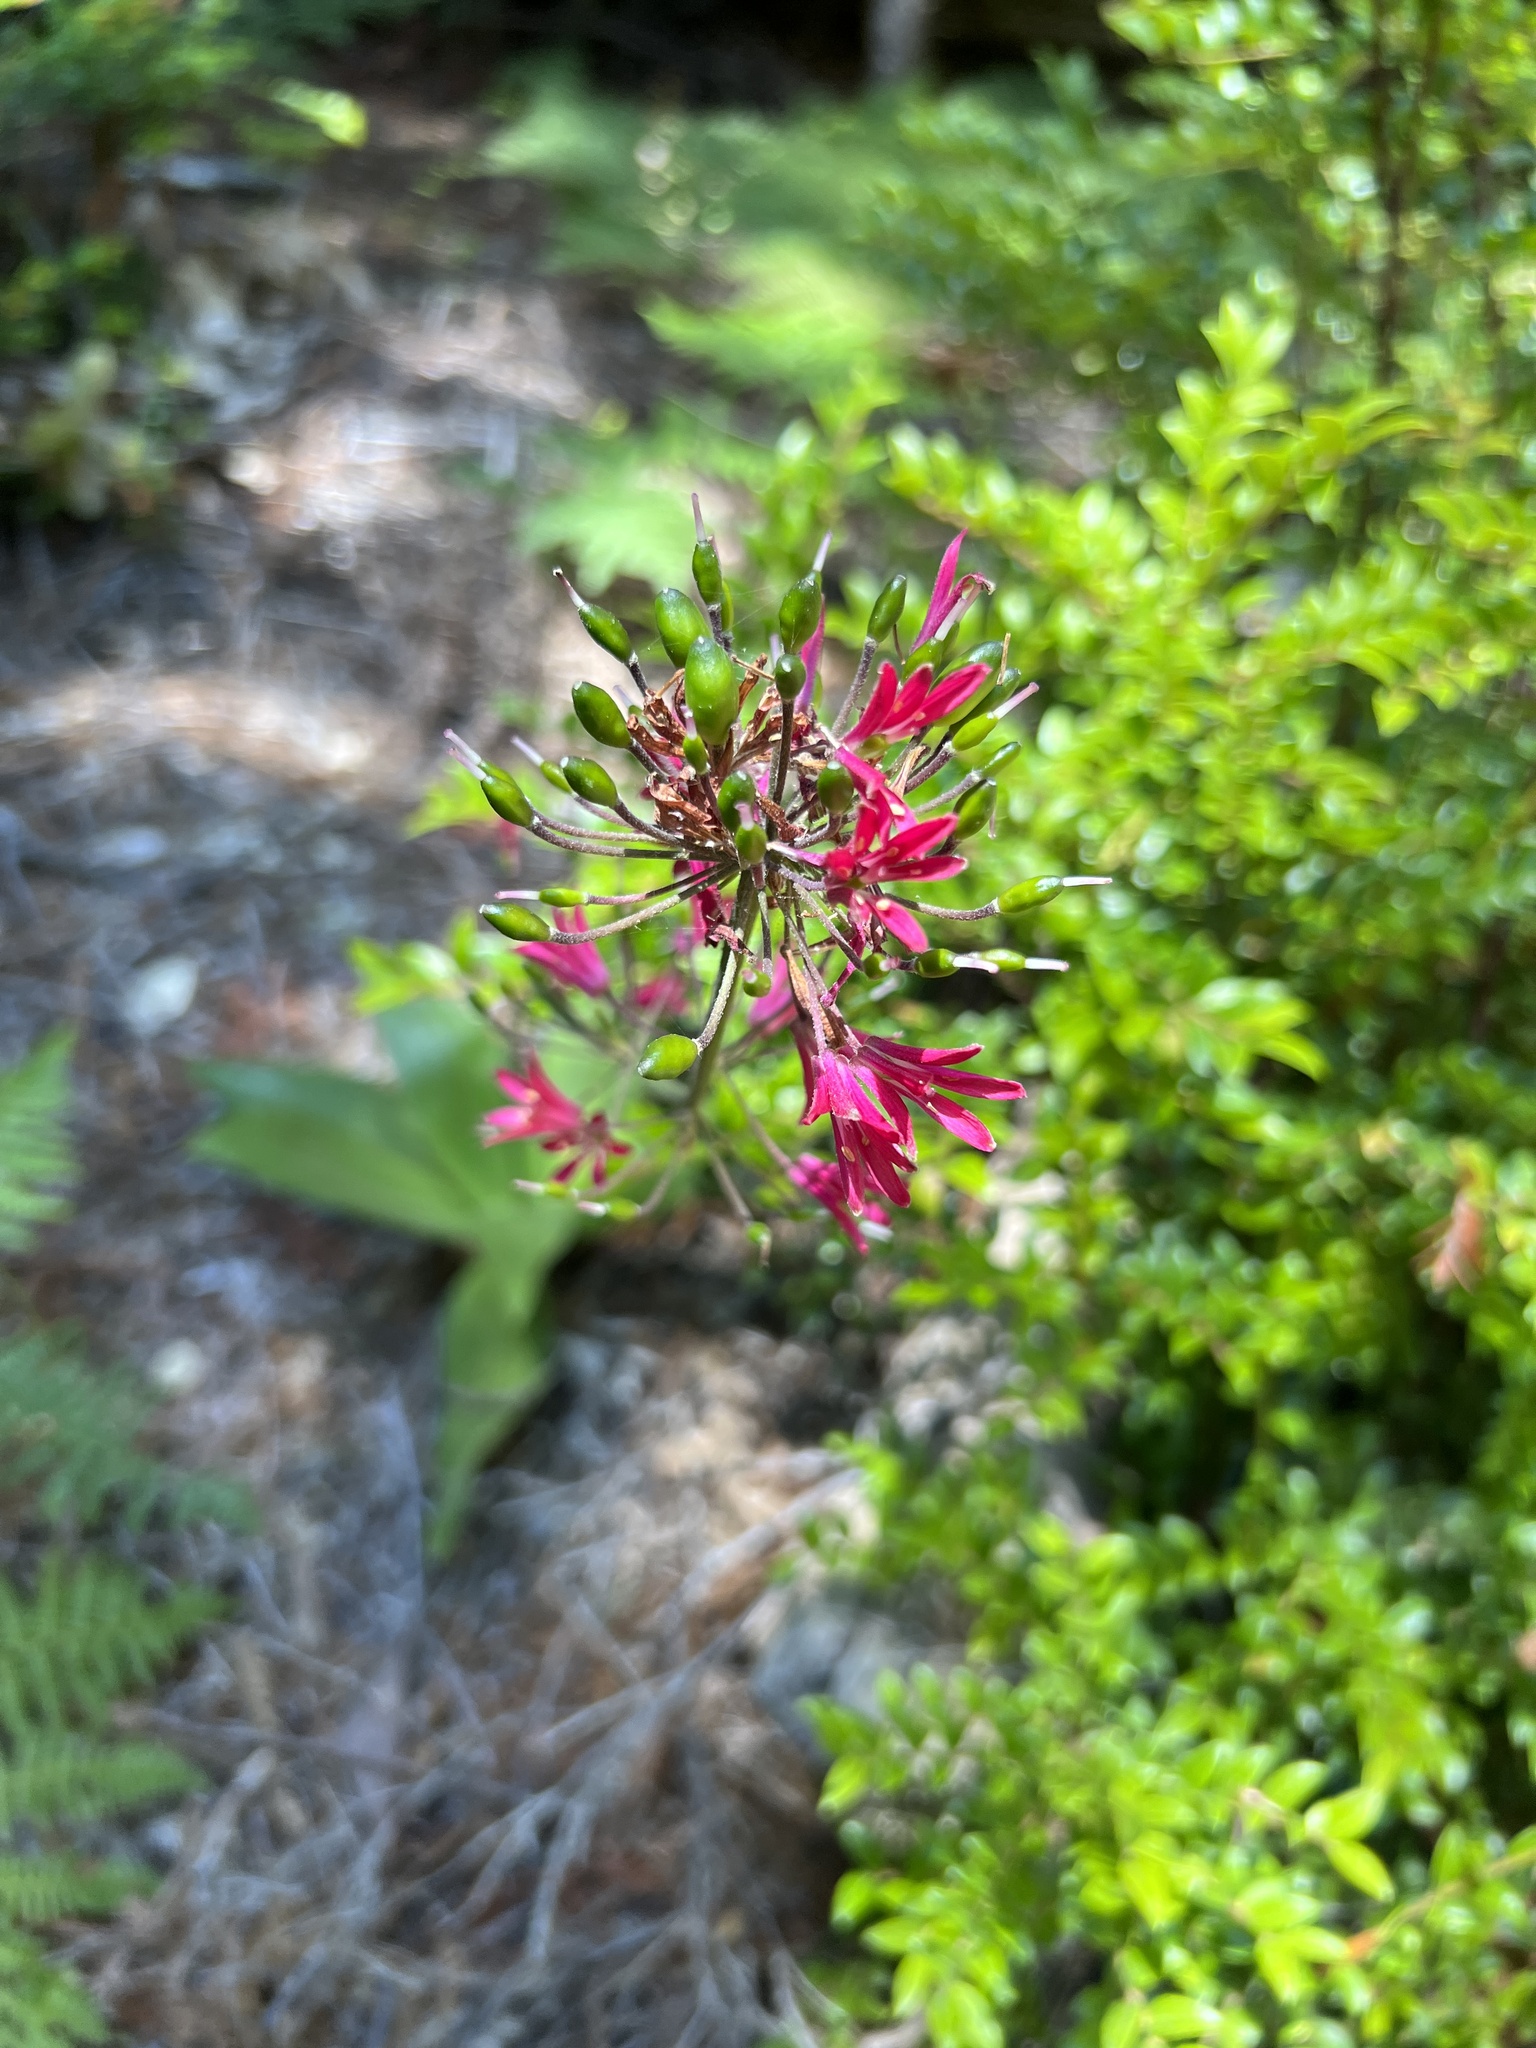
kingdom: Plantae
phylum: Tracheophyta
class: Liliopsida
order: Liliales
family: Liliaceae
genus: Clintonia
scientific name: Clintonia andrewsiana
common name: Red clintonia
